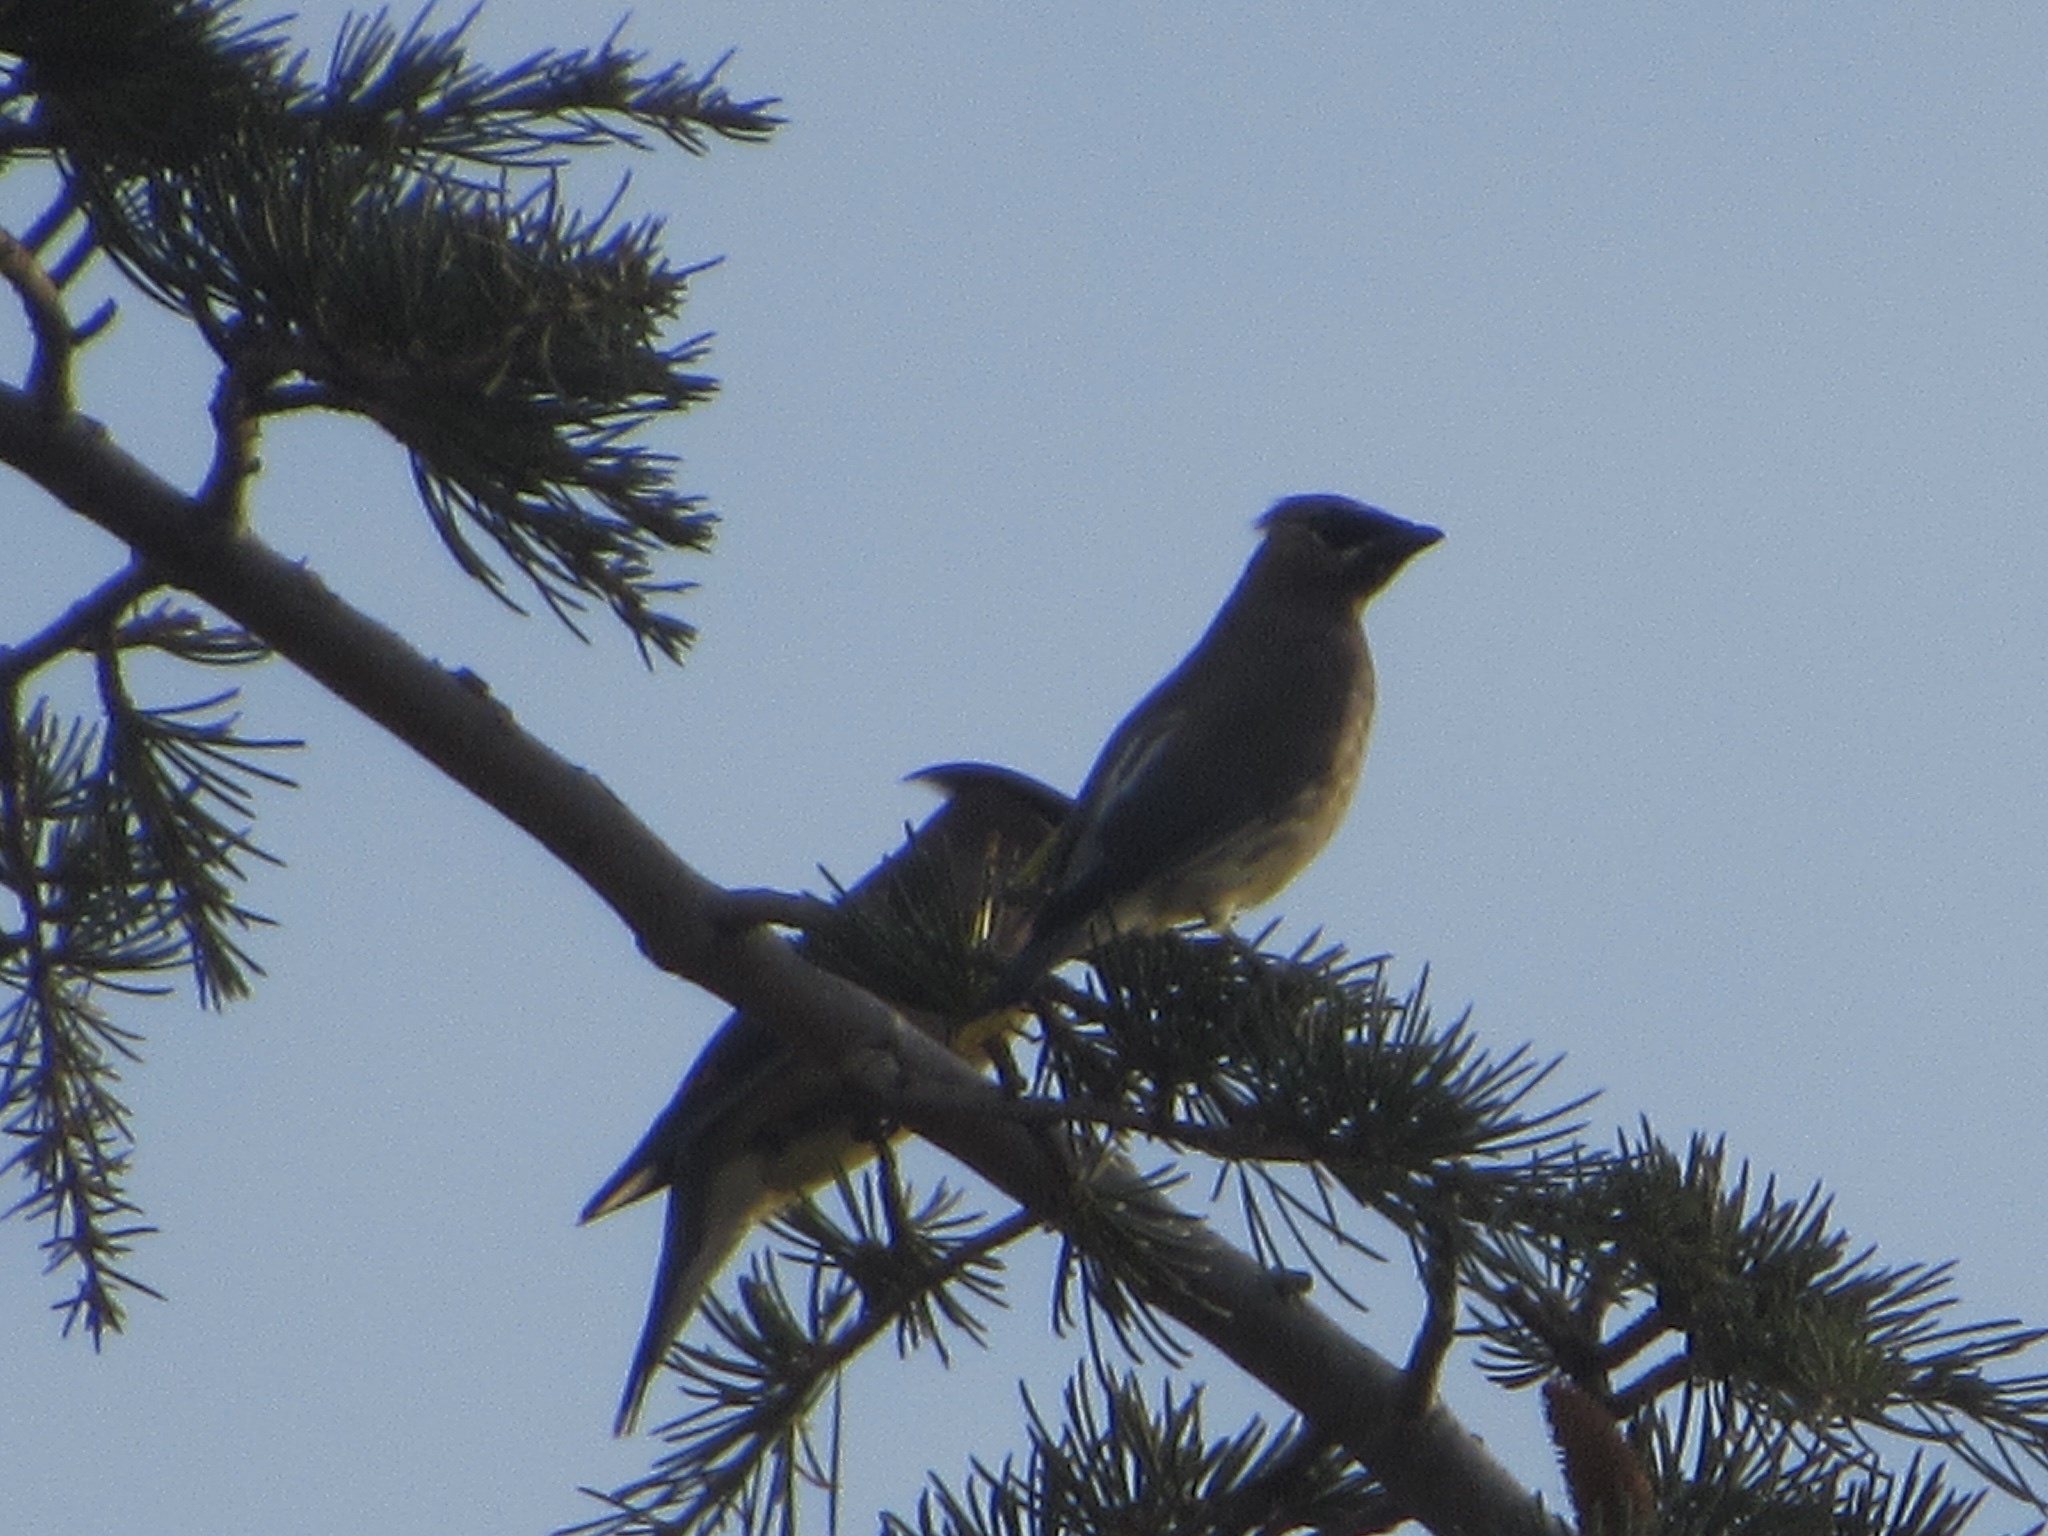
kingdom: Animalia
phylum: Chordata
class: Aves
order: Passeriformes
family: Bombycillidae
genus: Bombycilla
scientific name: Bombycilla cedrorum
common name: Cedar waxwing
